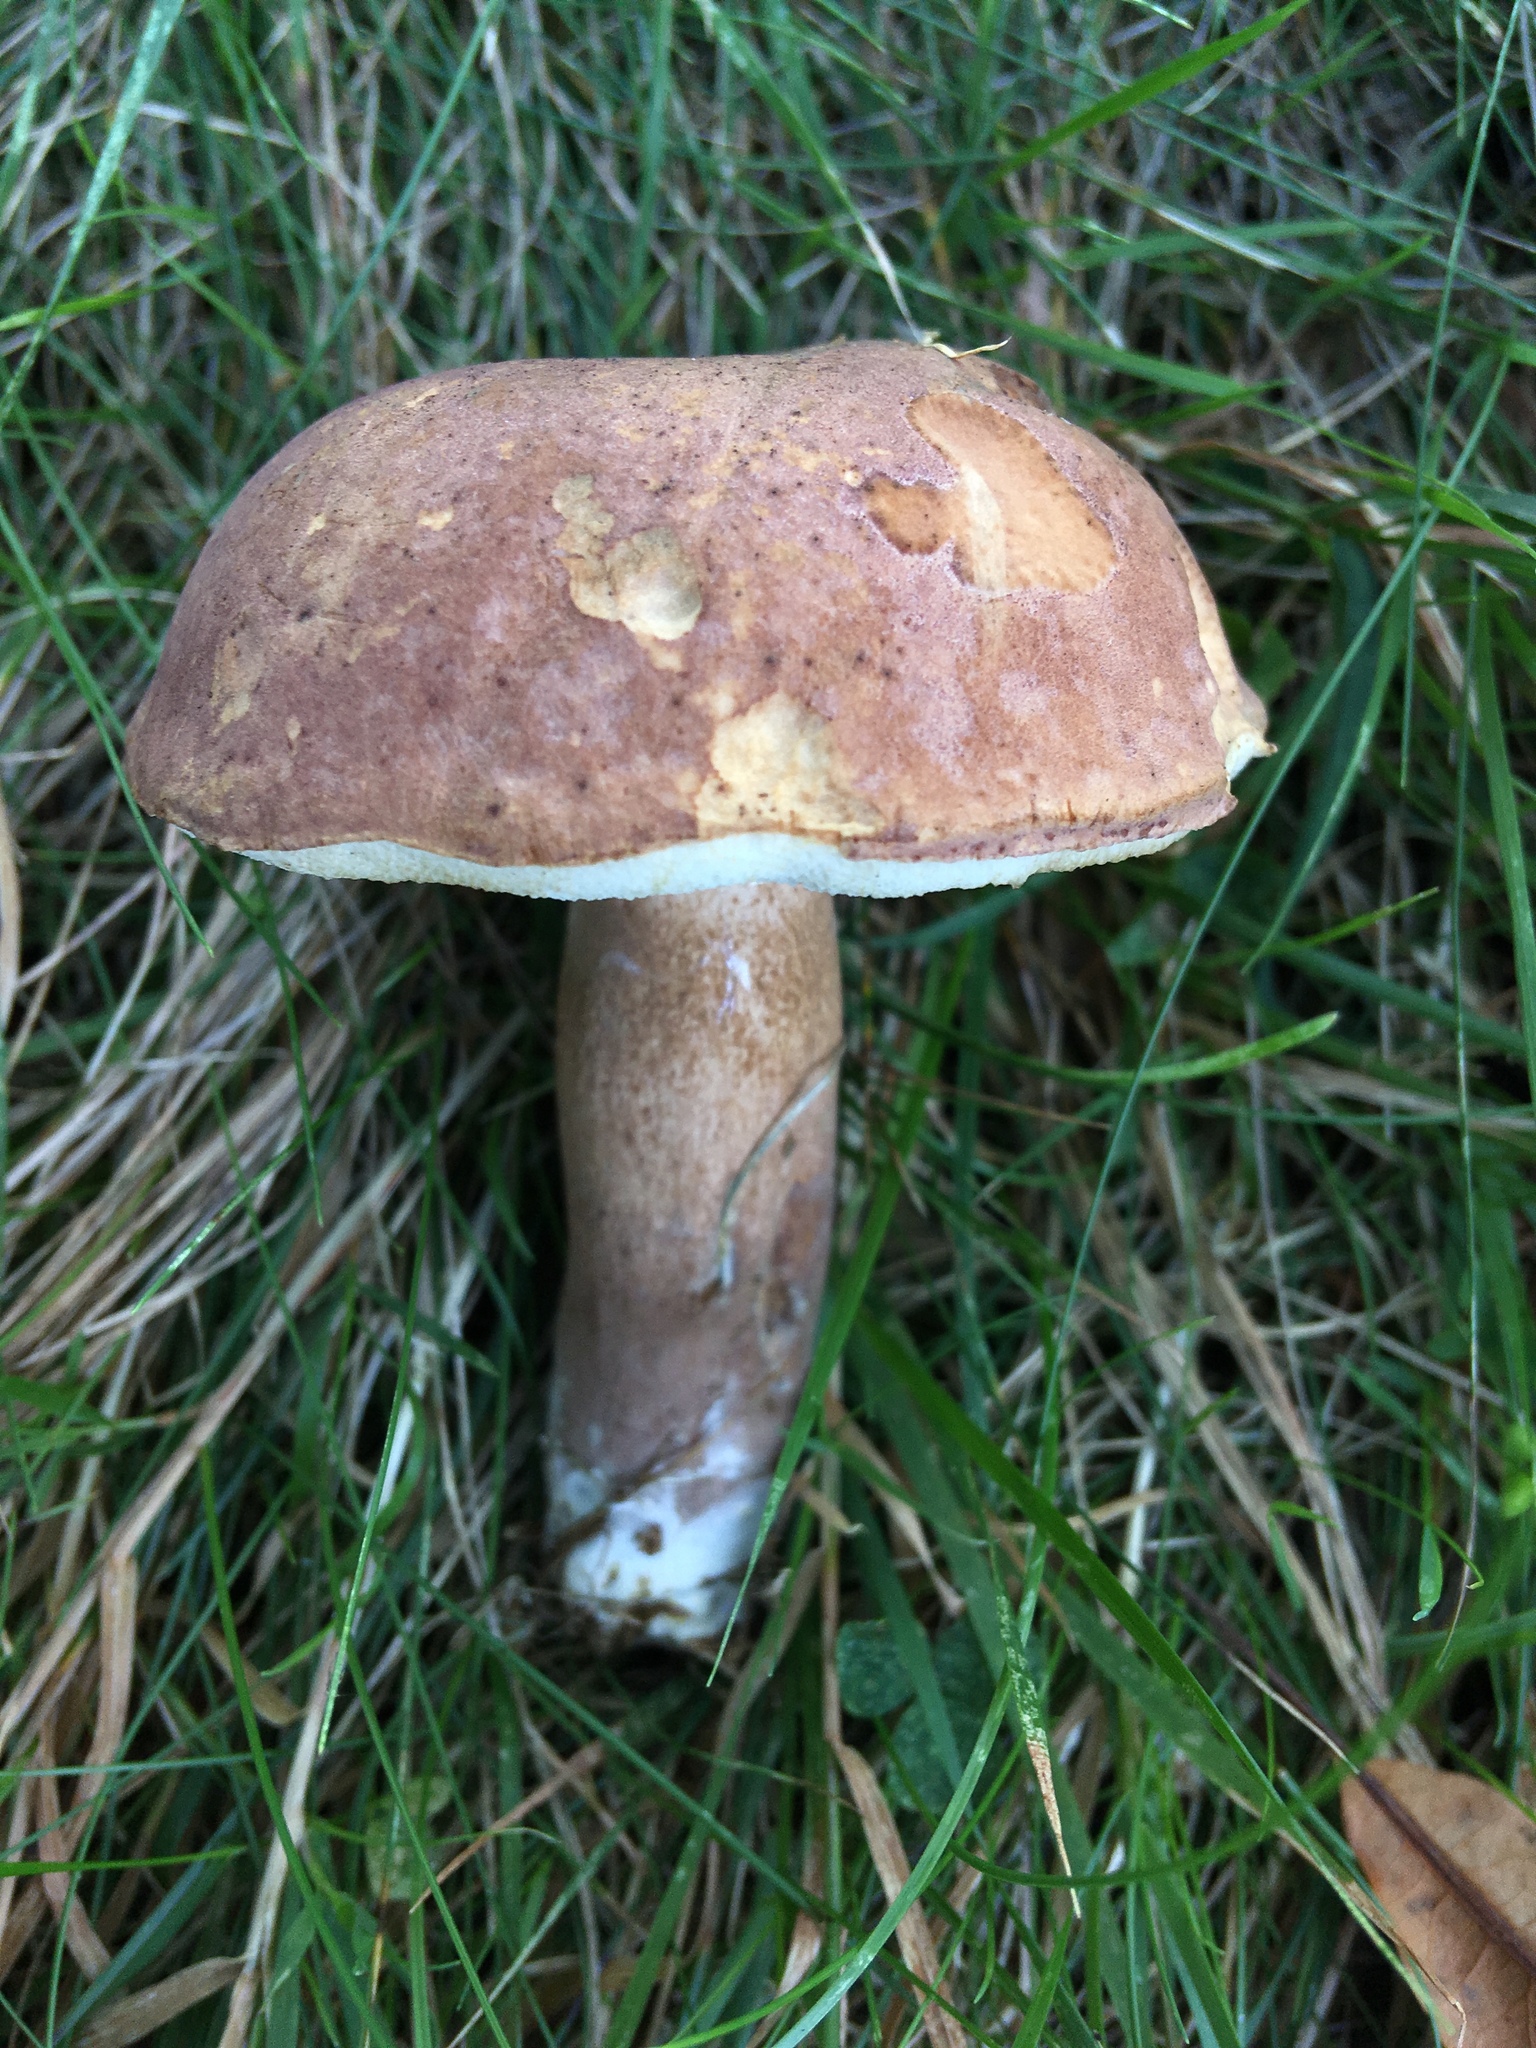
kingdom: Fungi
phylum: Basidiomycota
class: Agaricomycetes
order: Boletales
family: Boletaceae
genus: Tylopilus
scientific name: Tylopilus ferrugineus
